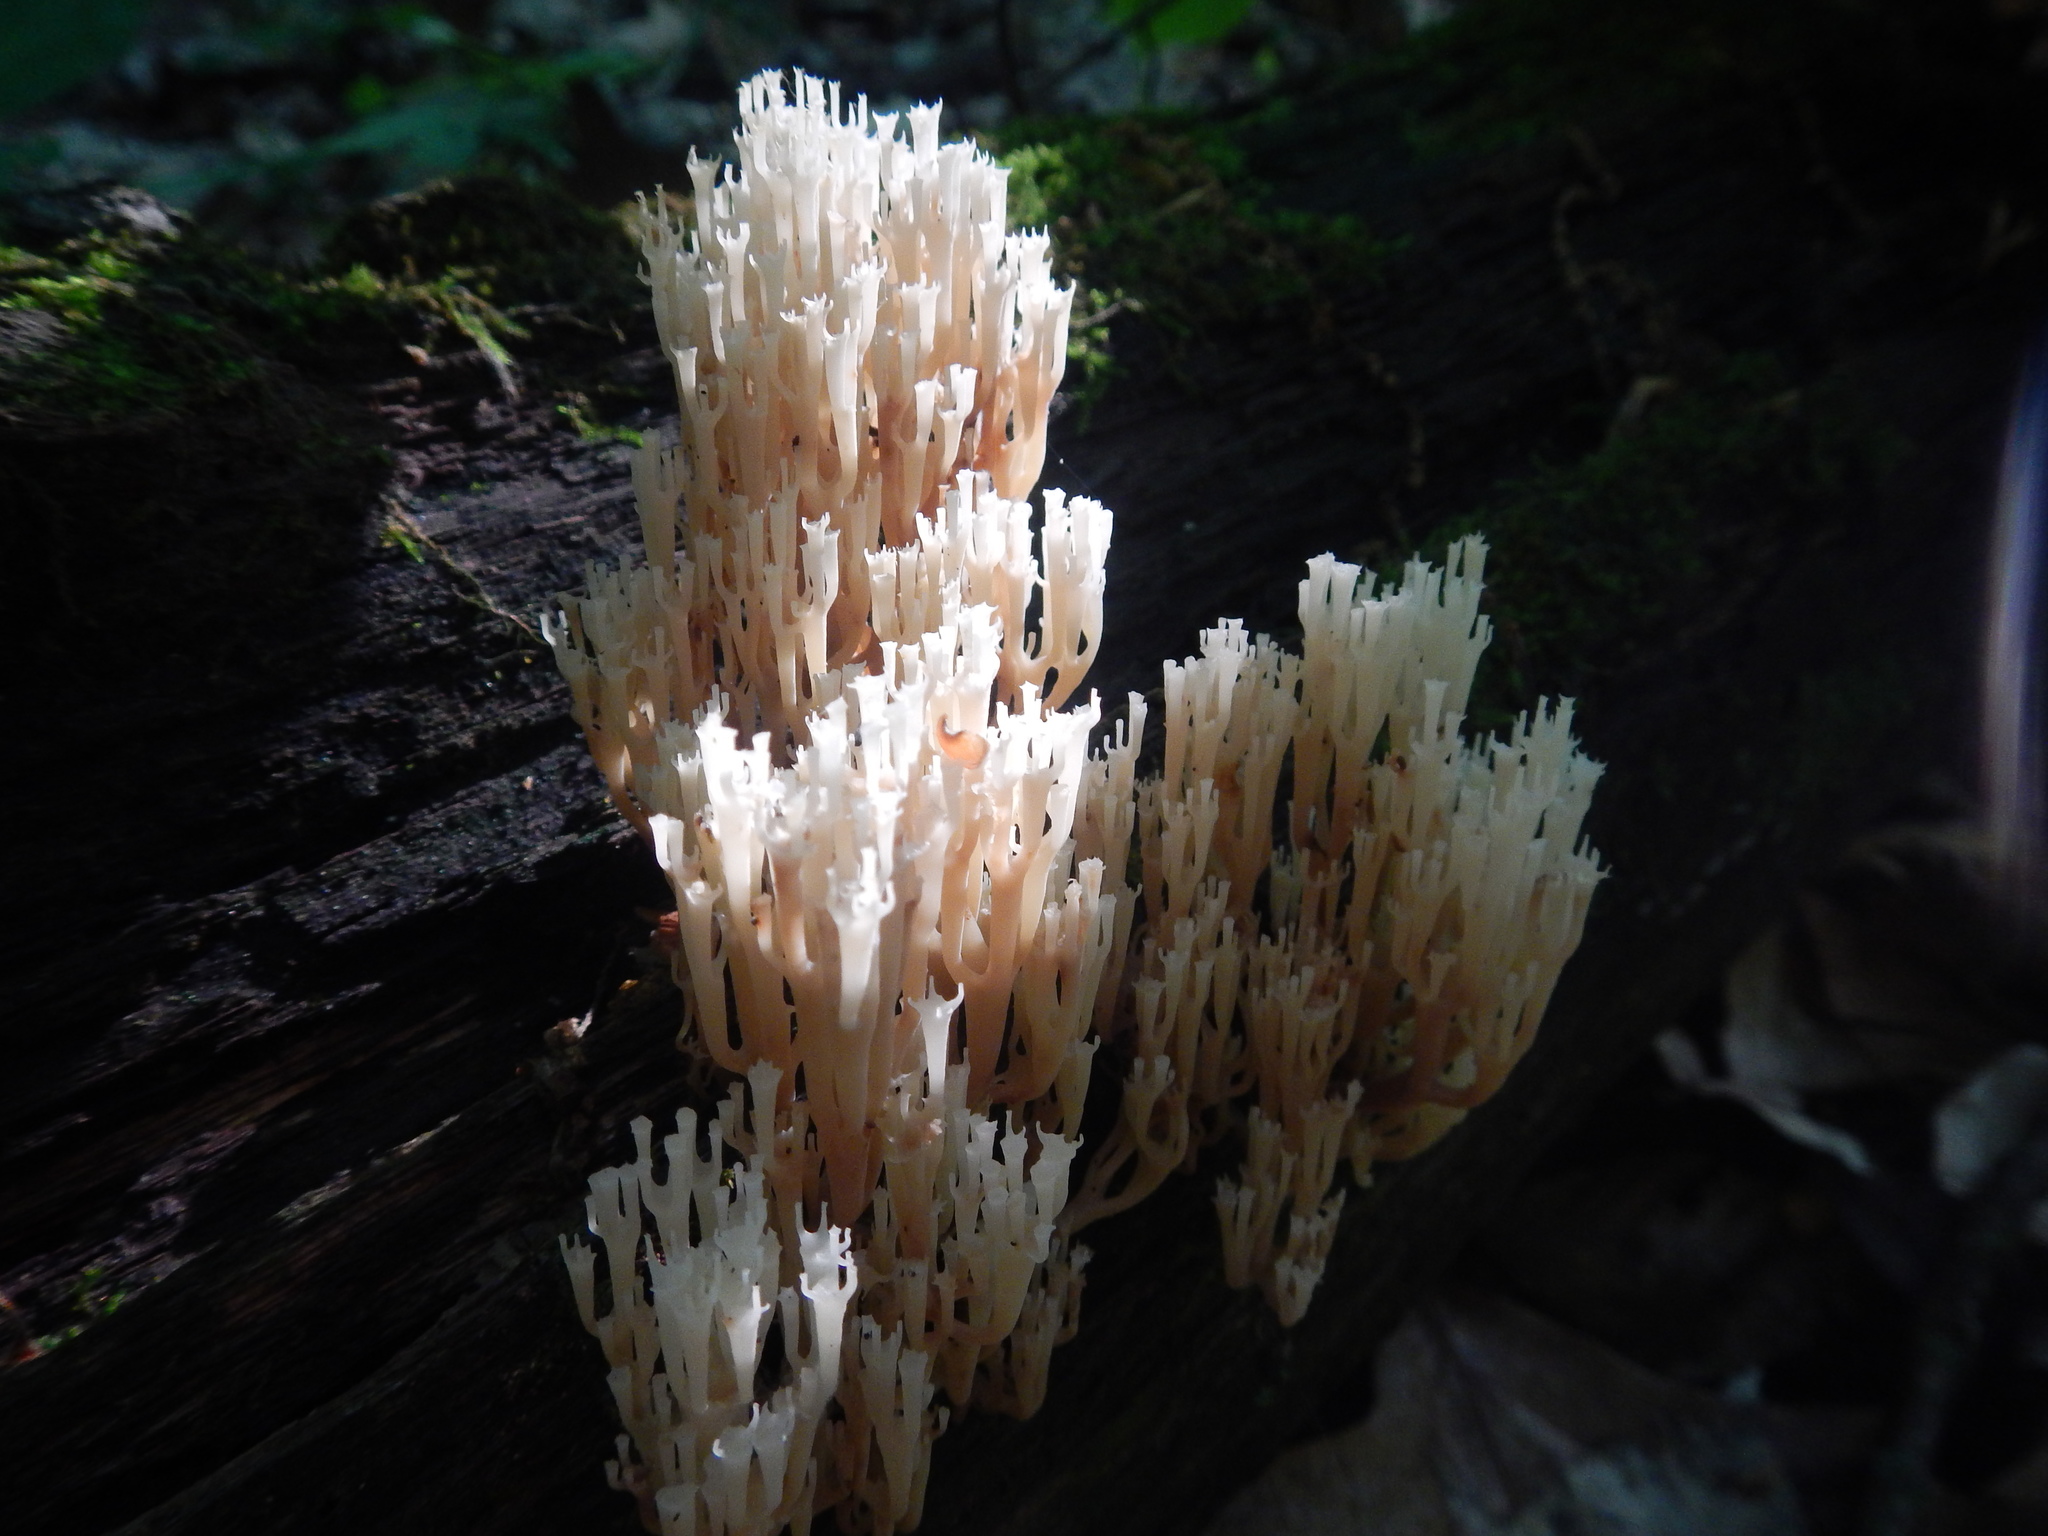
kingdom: Fungi
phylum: Basidiomycota
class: Agaricomycetes
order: Russulales
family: Auriscalpiaceae
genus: Artomyces
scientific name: Artomyces pyxidatus
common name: Crown-tipped coral fungus
